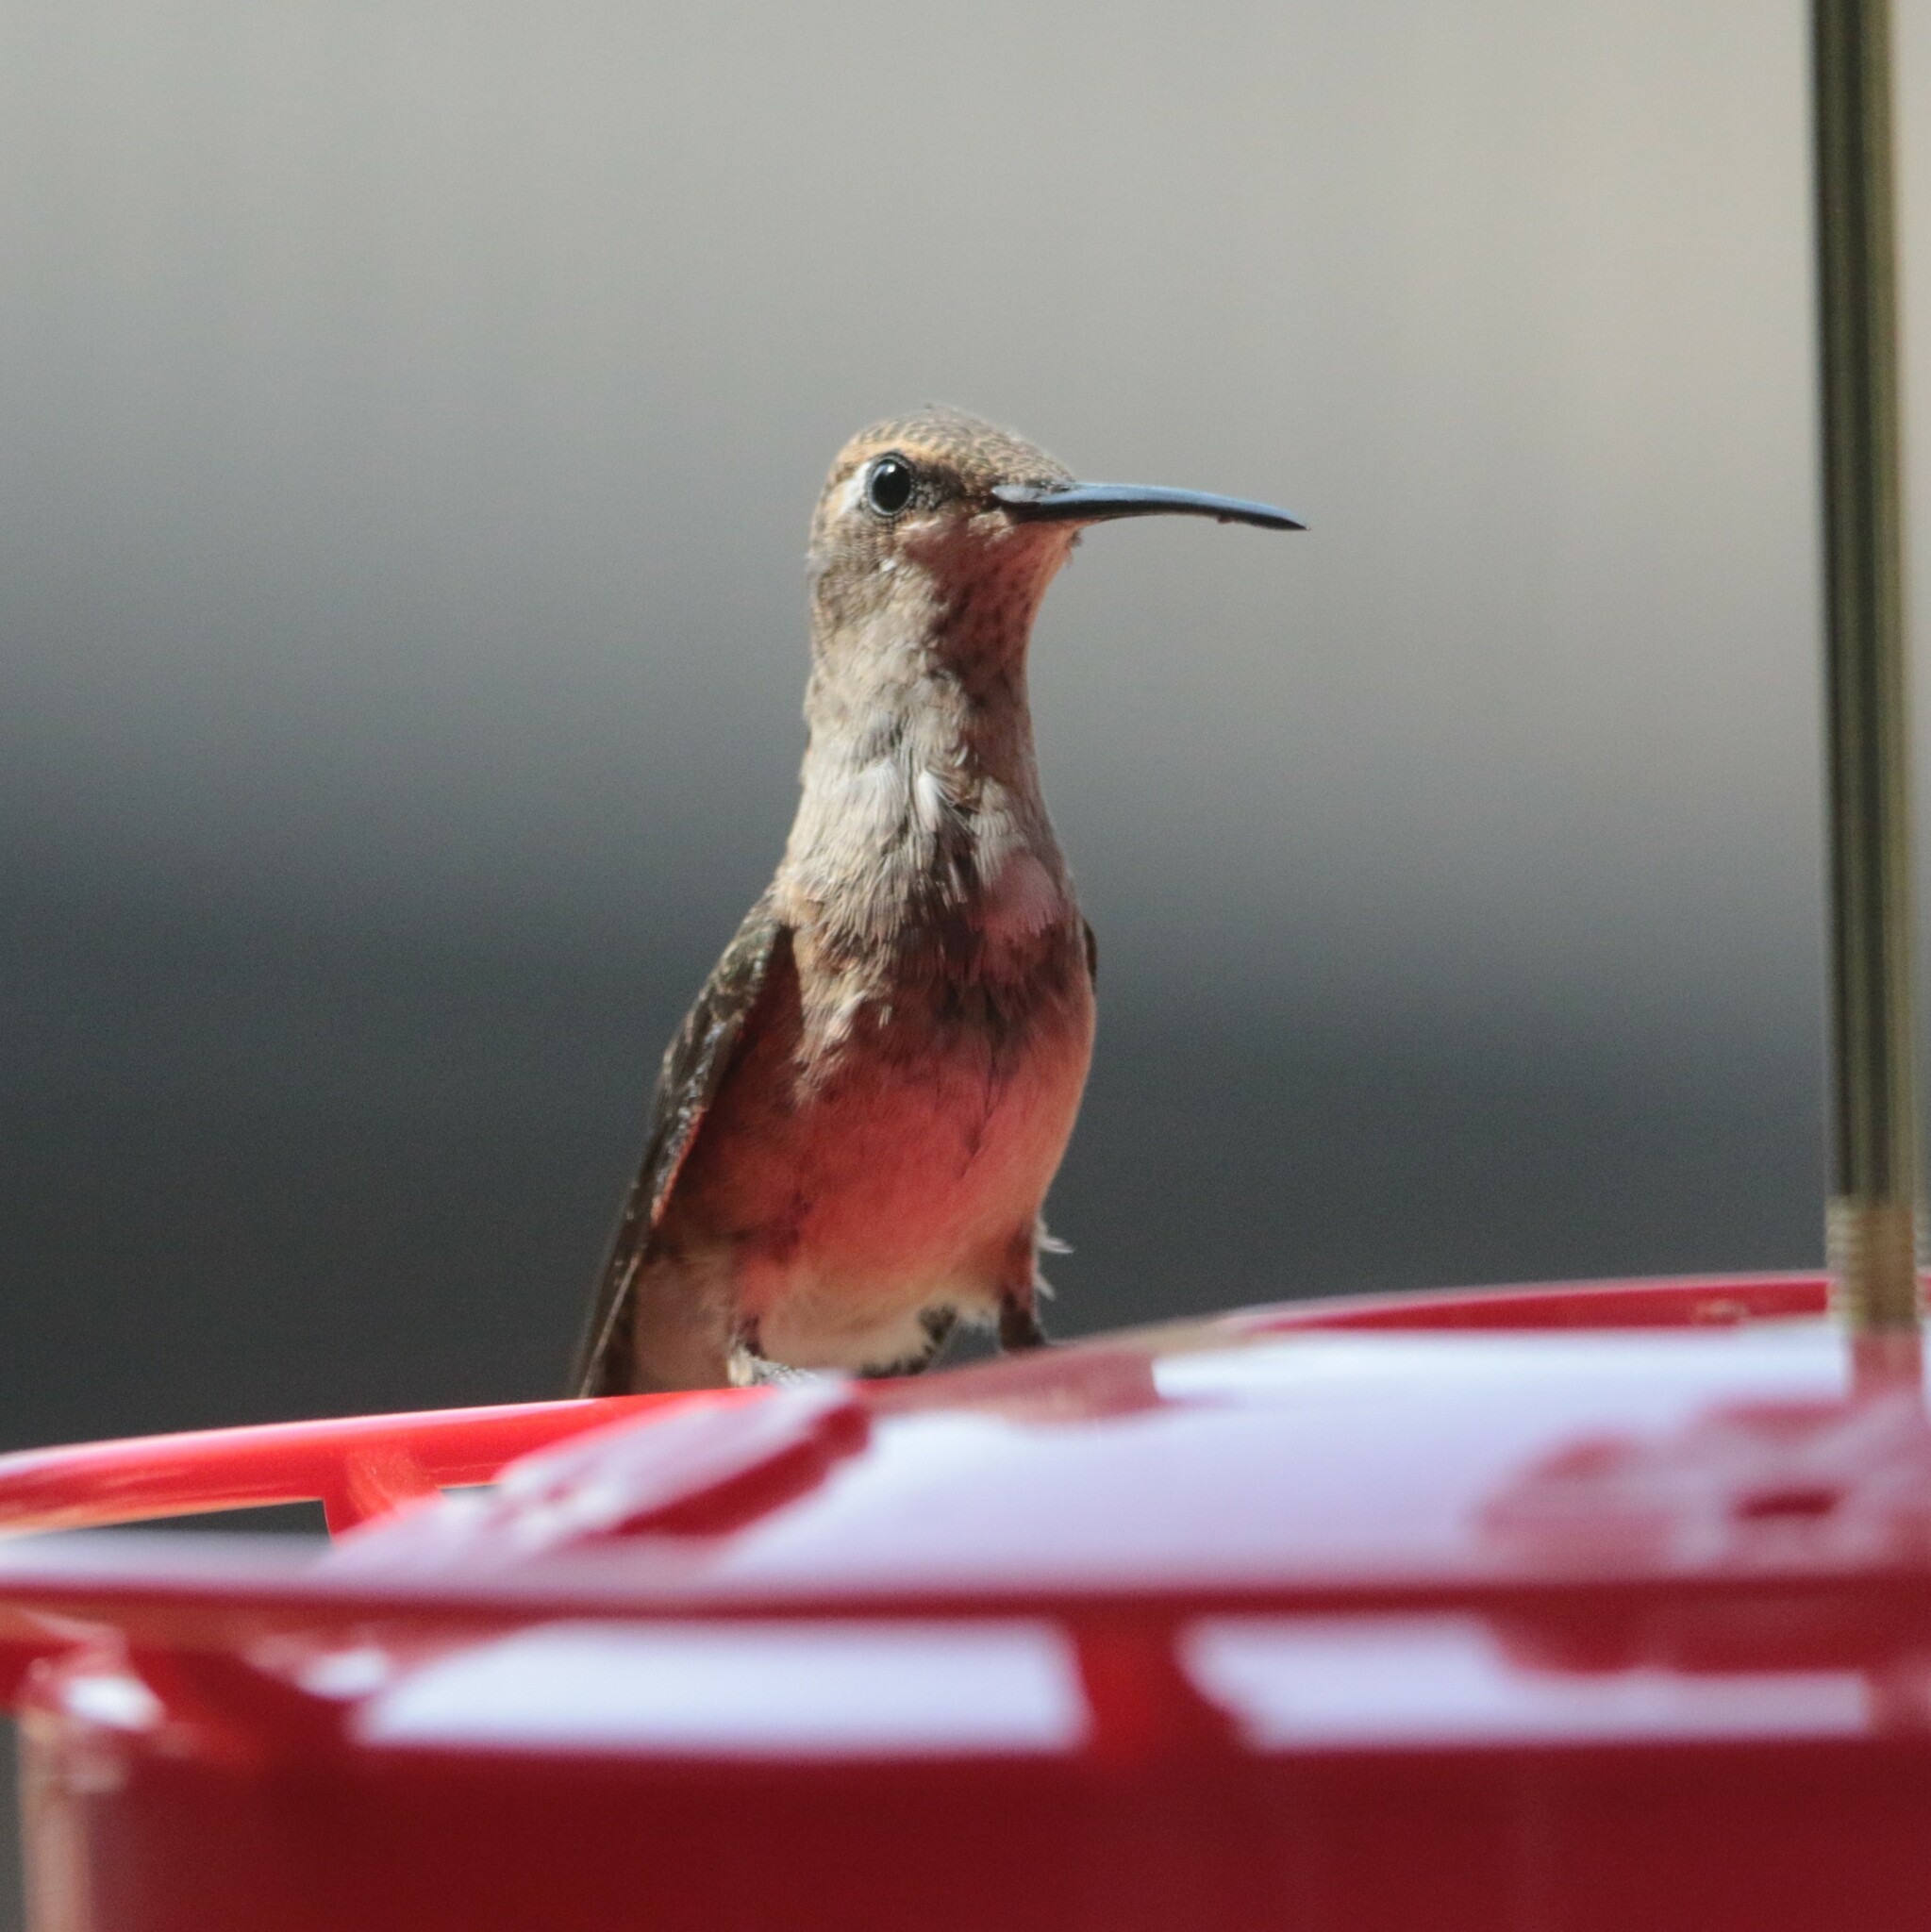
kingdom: Animalia
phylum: Chordata
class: Aves
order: Apodiformes
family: Trochilidae
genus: Archilochus
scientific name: Archilochus alexandri
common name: Black-chinned hummingbird
